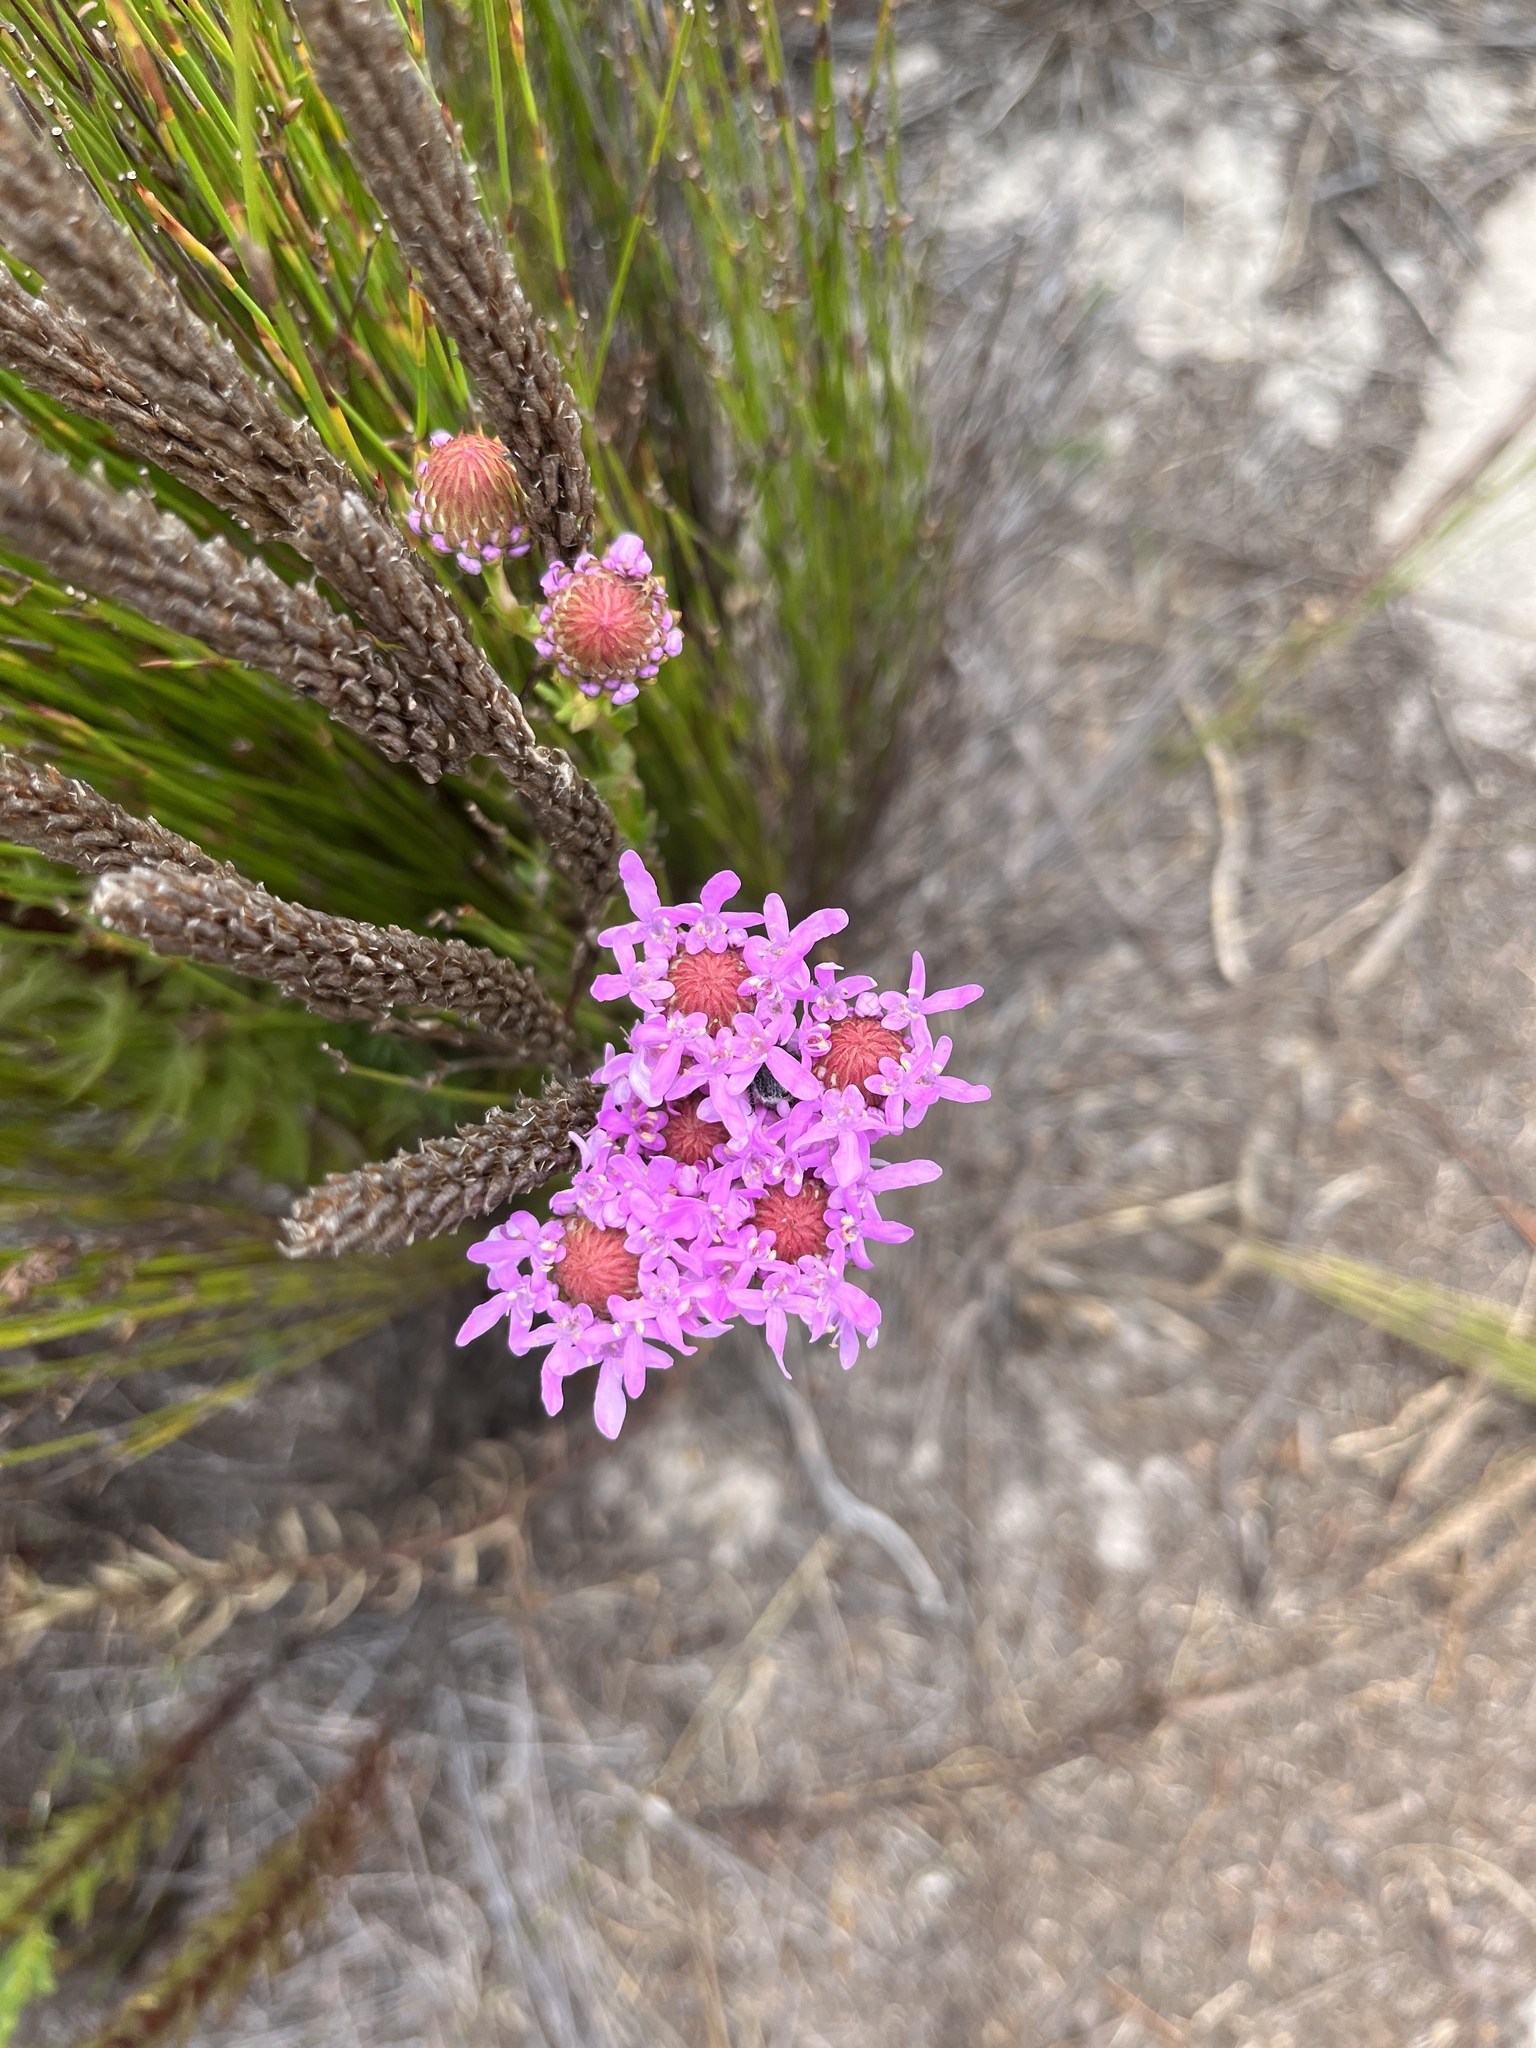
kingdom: Plantae
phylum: Tracheophyta
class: Magnoliopsida
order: Lamiales
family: Scrophulariaceae
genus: Pseudoselago
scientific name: Pseudoselago spuria
